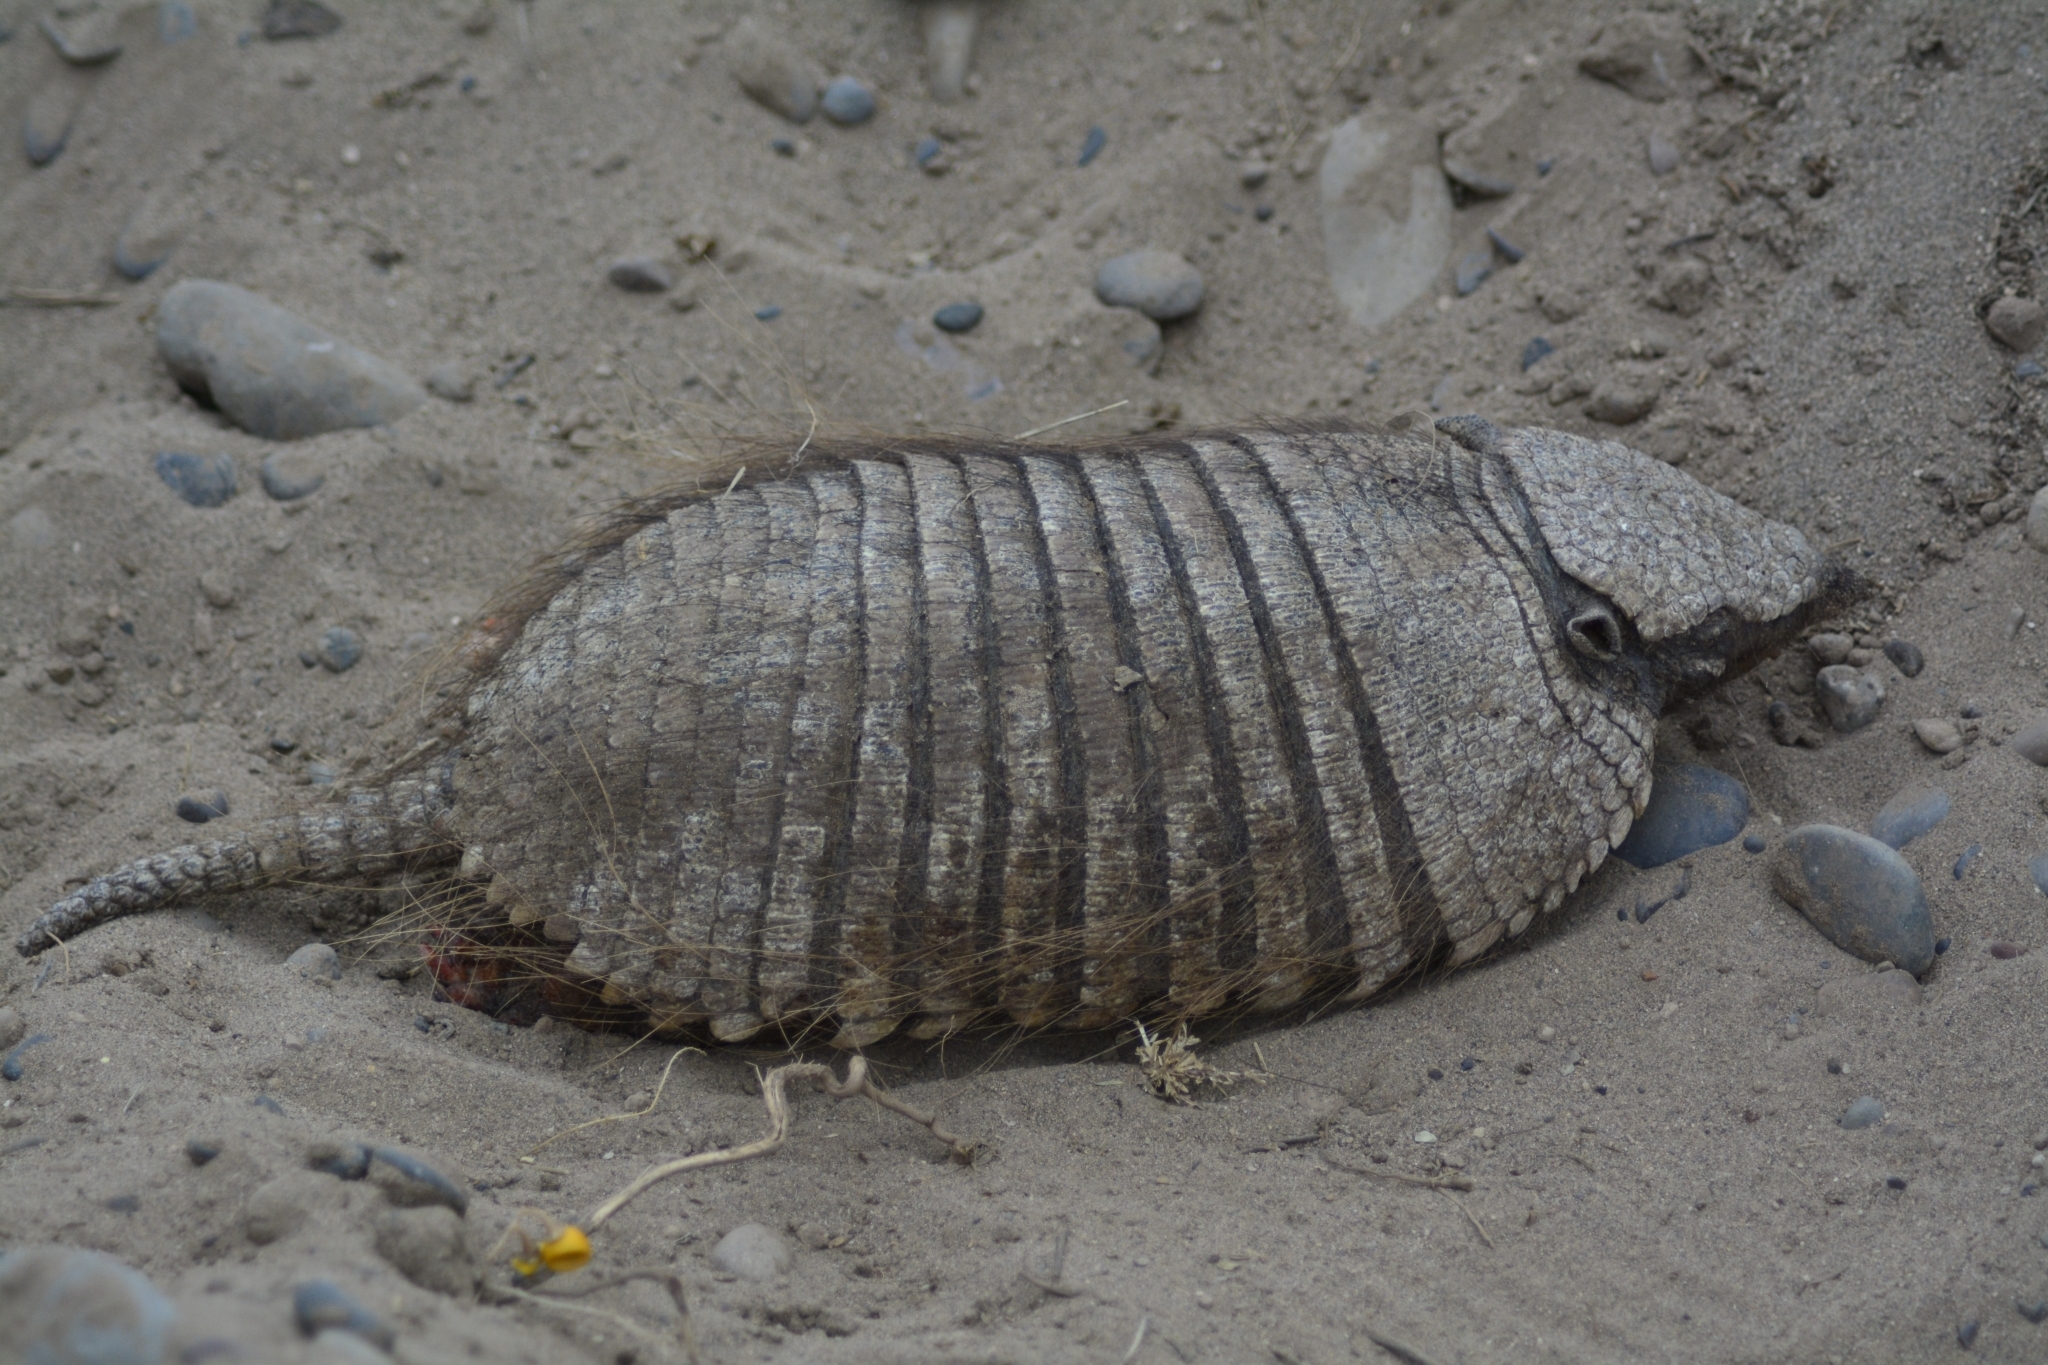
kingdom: Animalia
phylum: Chordata
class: Mammalia
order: Cingulata
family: Dasypodidae
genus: Chaetophractus
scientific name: Chaetophractus villosus
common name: Big hairy armadillo
